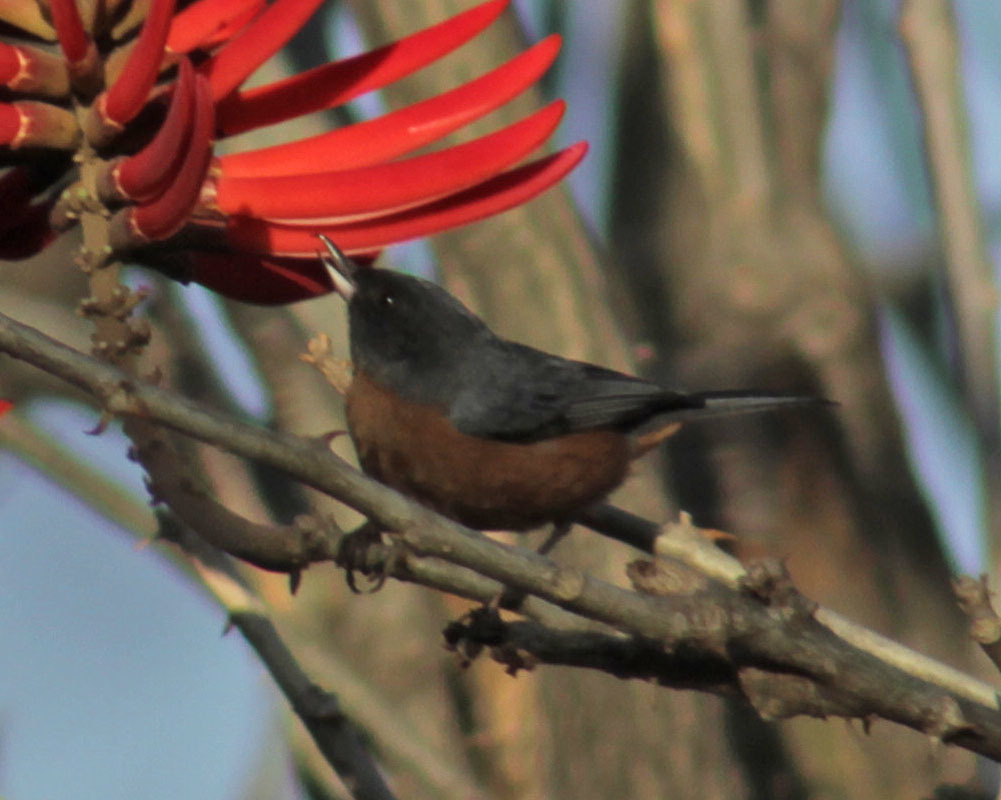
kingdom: Animalia
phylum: Chordata
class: Aves
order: Passeriformes
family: Thraupidae
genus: Diglossa
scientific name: Diglossa baritula
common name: Cinnamon-bellied flowerpiercer
